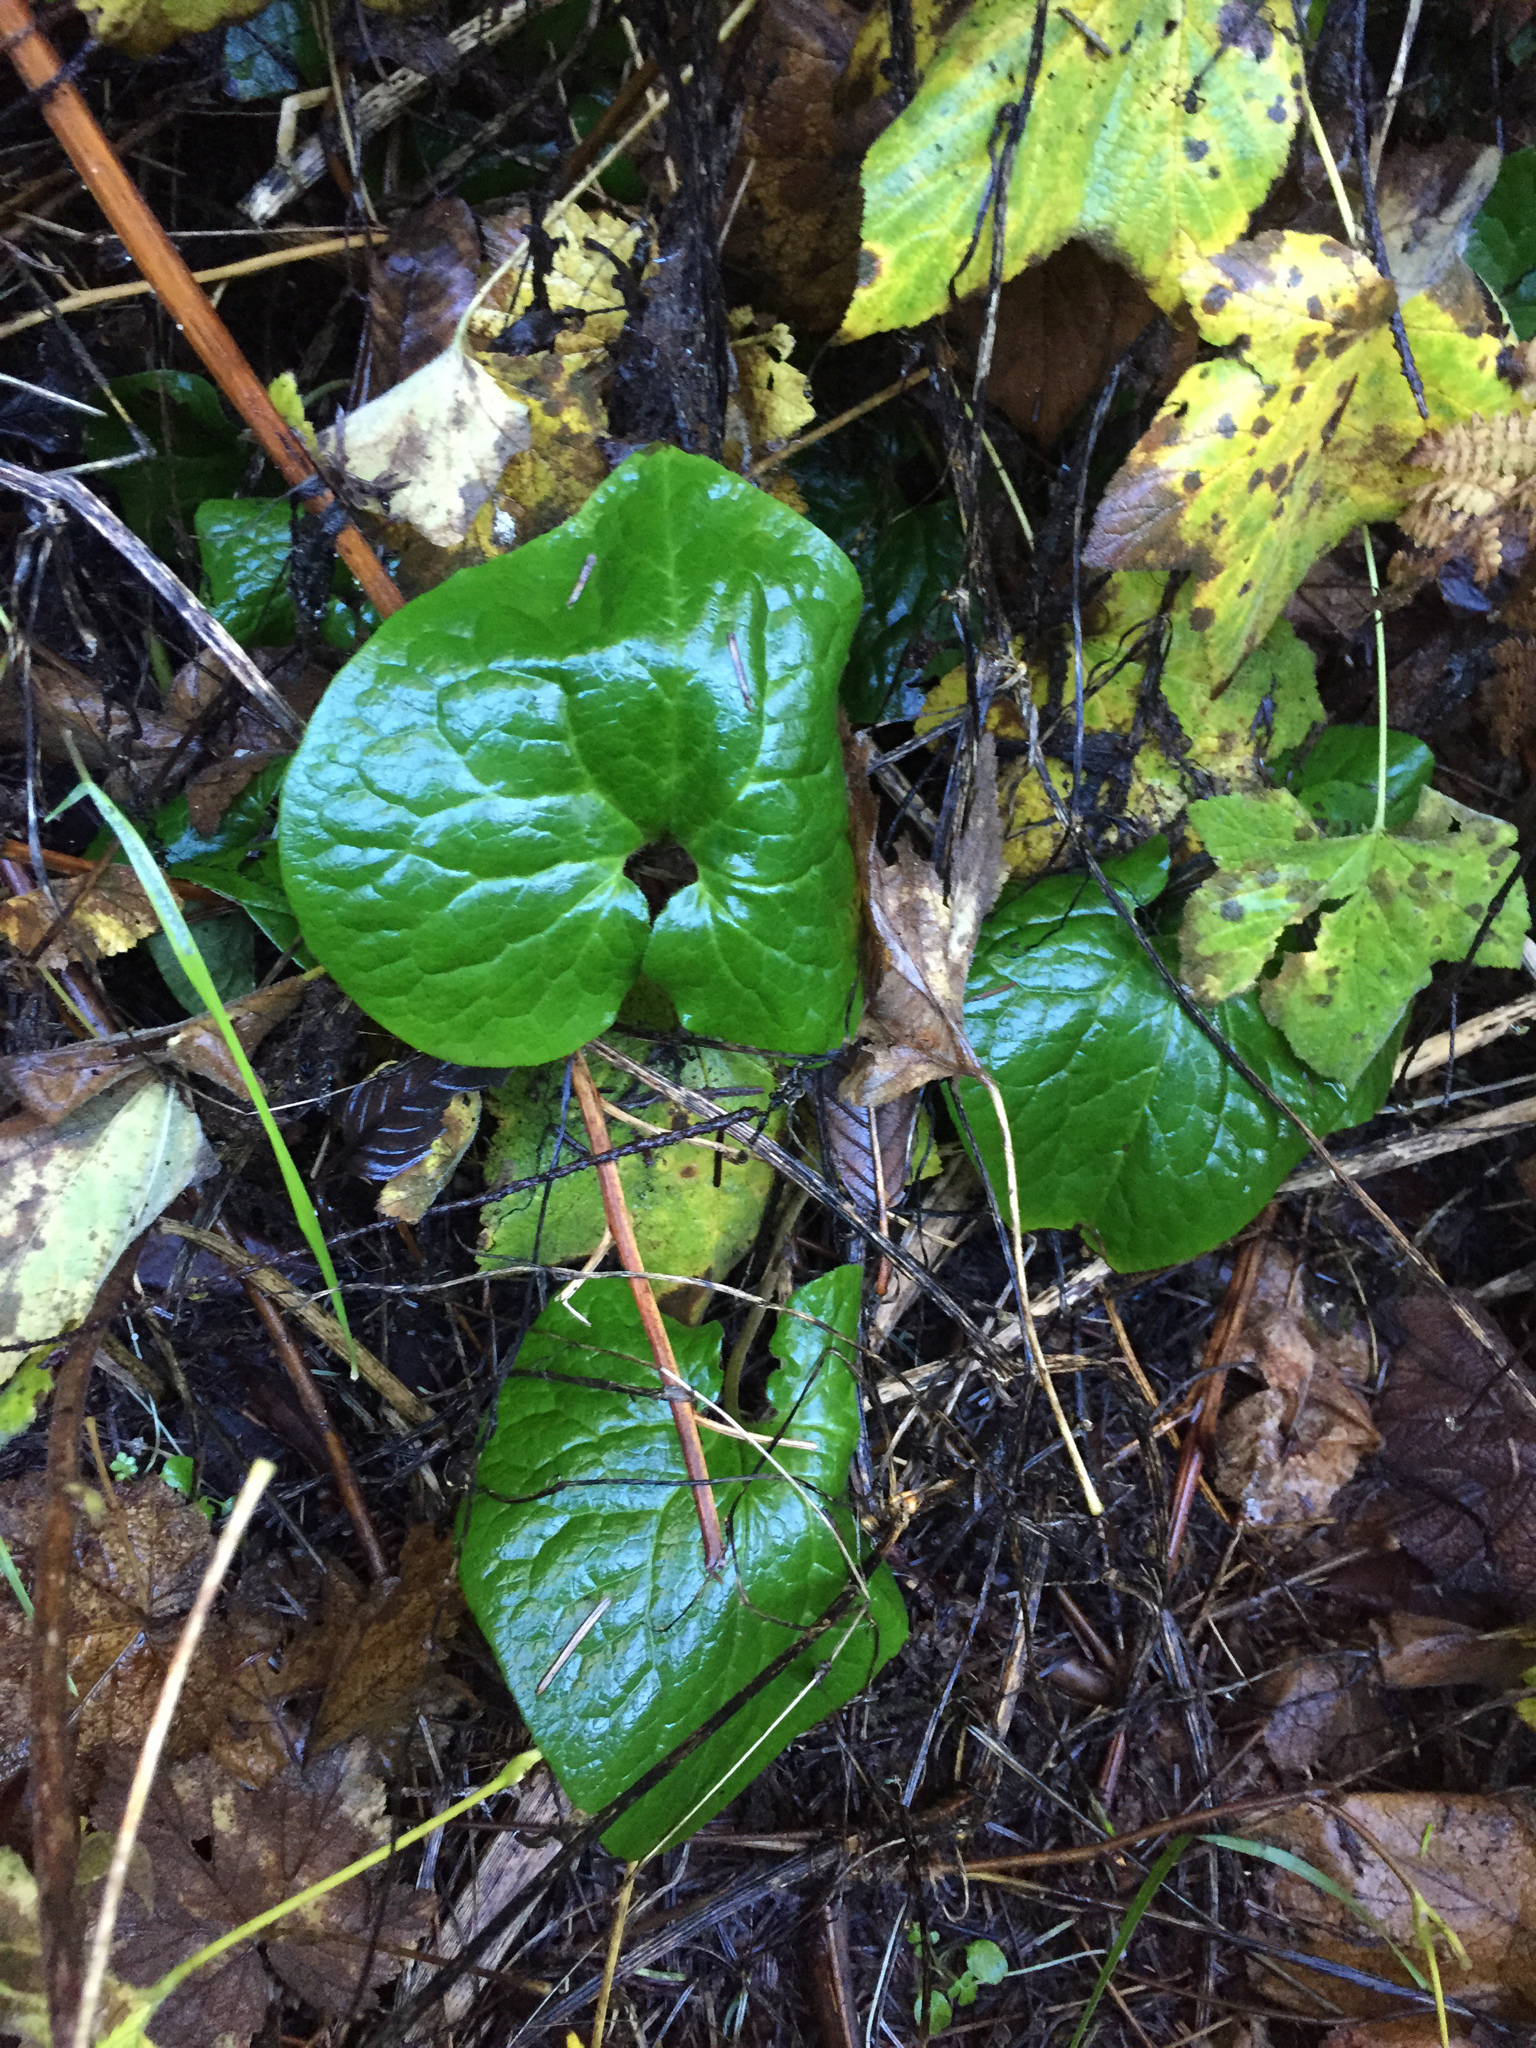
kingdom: Plantae
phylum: Tracheophyta
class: Magnoliopsida
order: Piperales
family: Aristolochiaceae
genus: Asarum
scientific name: Asarum caudatum
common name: Wild ginger
